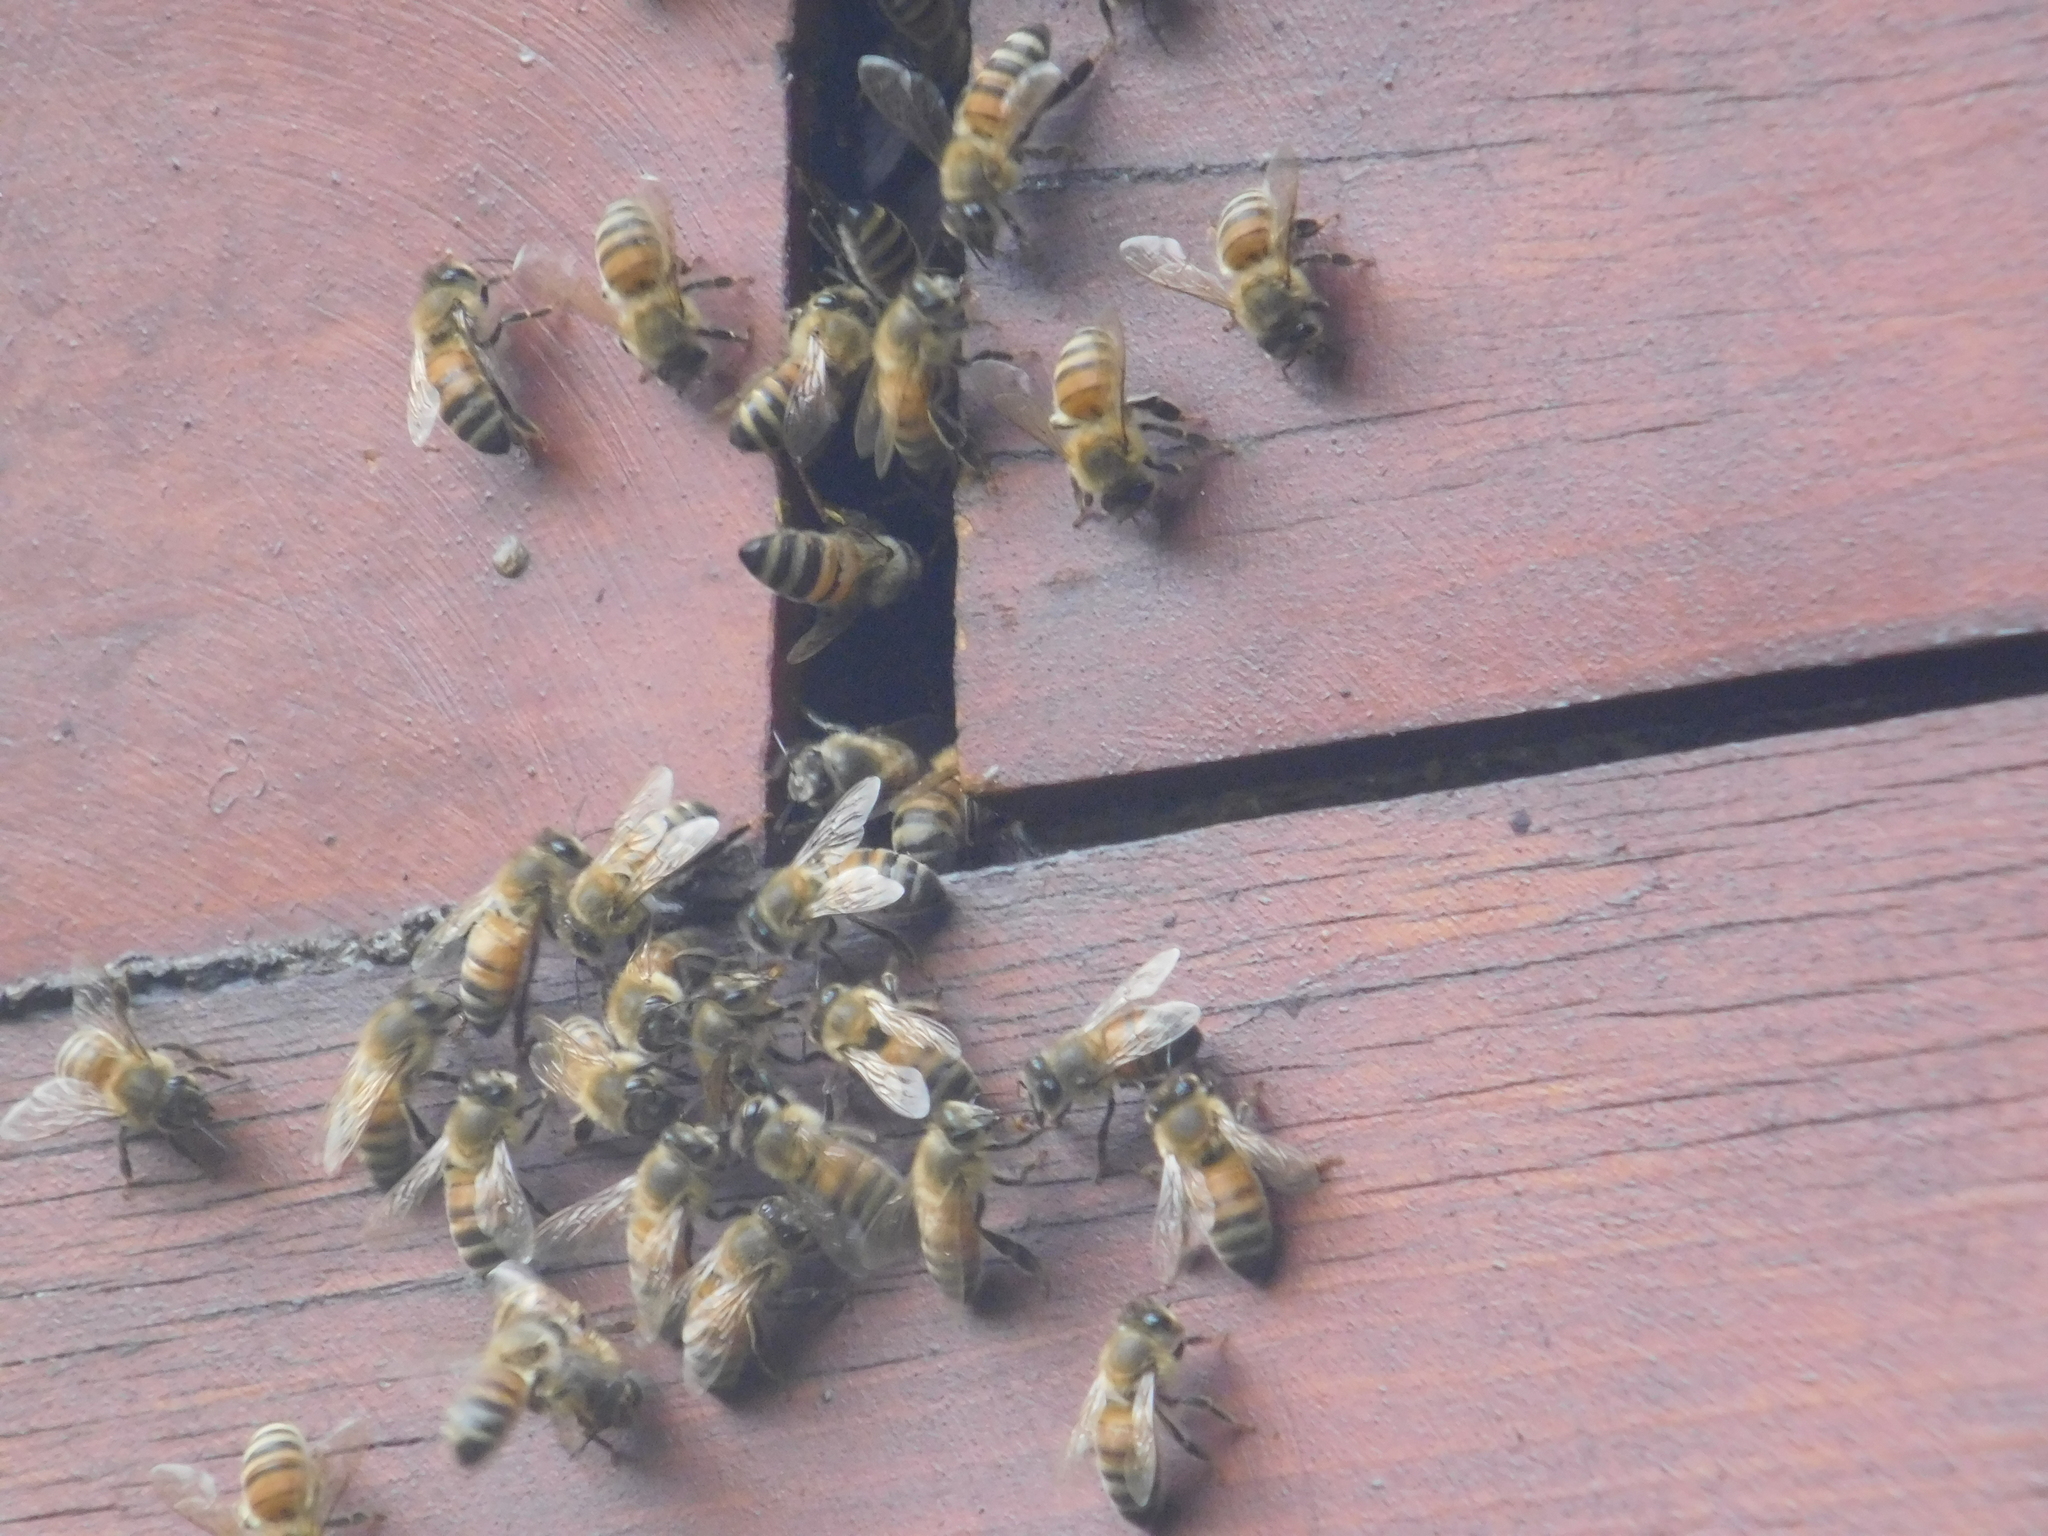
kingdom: Animalia
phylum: Arthropoda
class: Insecta
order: Hymenoptera
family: Apidae
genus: Apis
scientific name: Apis mellifera
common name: Honey bee
